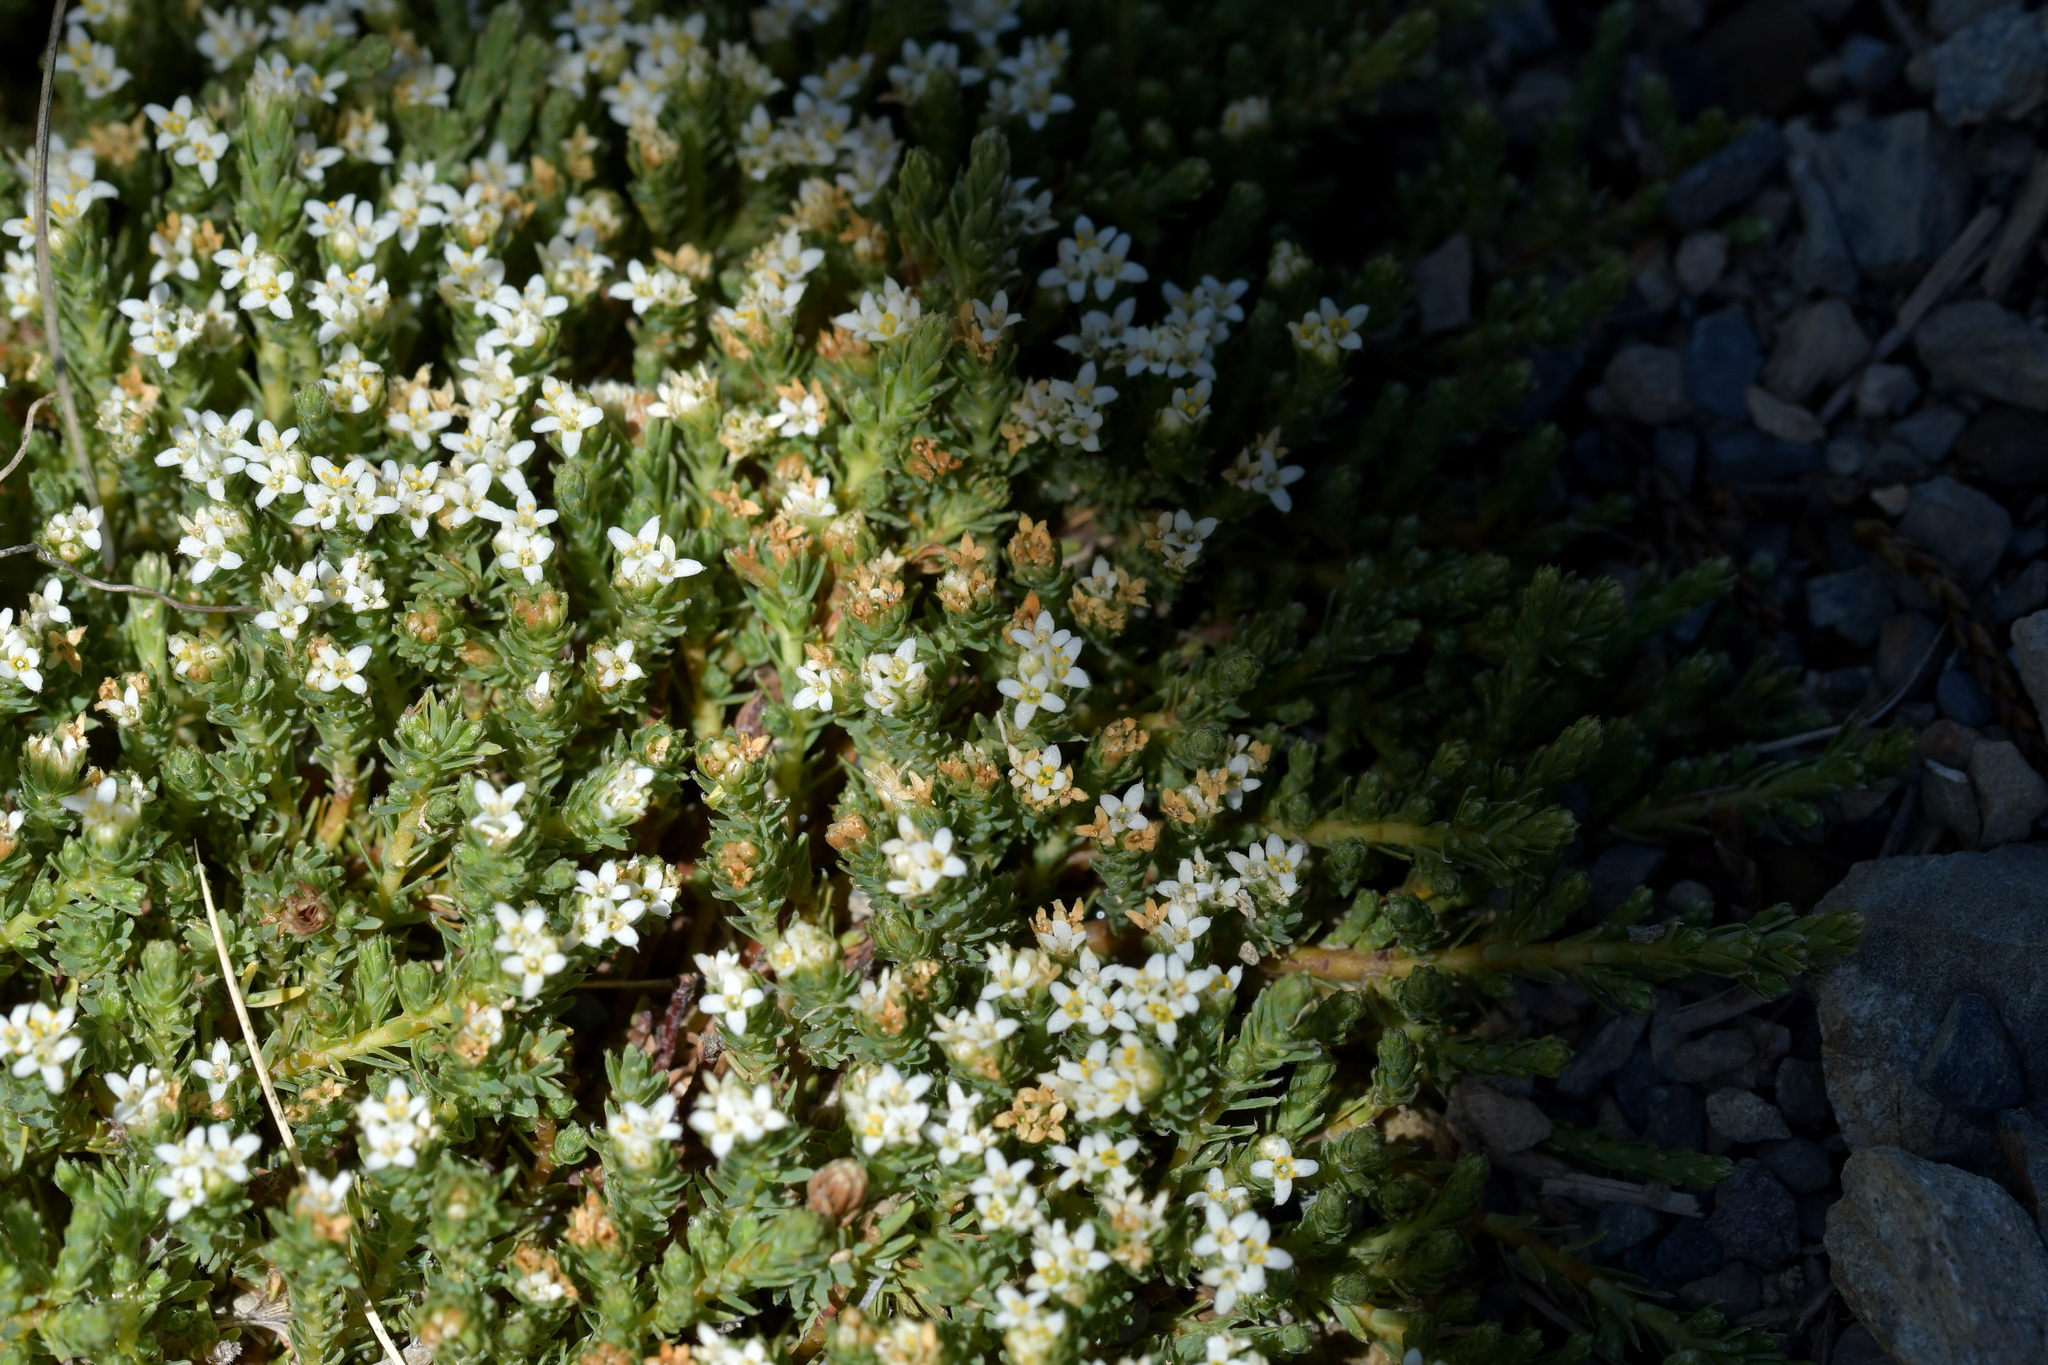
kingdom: Plantae
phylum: Tracheophyta
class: Magnoliopsida
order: Malvales
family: Thymelaeaceae
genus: Kelleria
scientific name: Kelleria dieffenbachii
